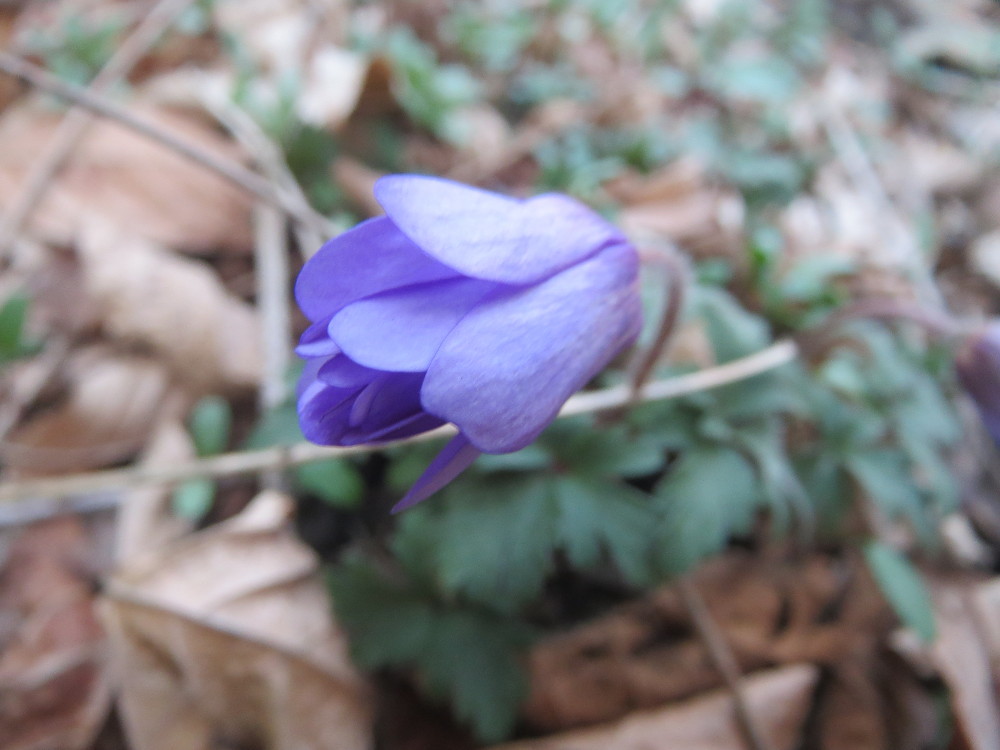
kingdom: Plantae
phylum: Tracheophyta
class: Magnoliopsida
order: Ranunculales
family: Ranunculaceae
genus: Anemone
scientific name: Anemone blanda
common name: Balkan anemone
